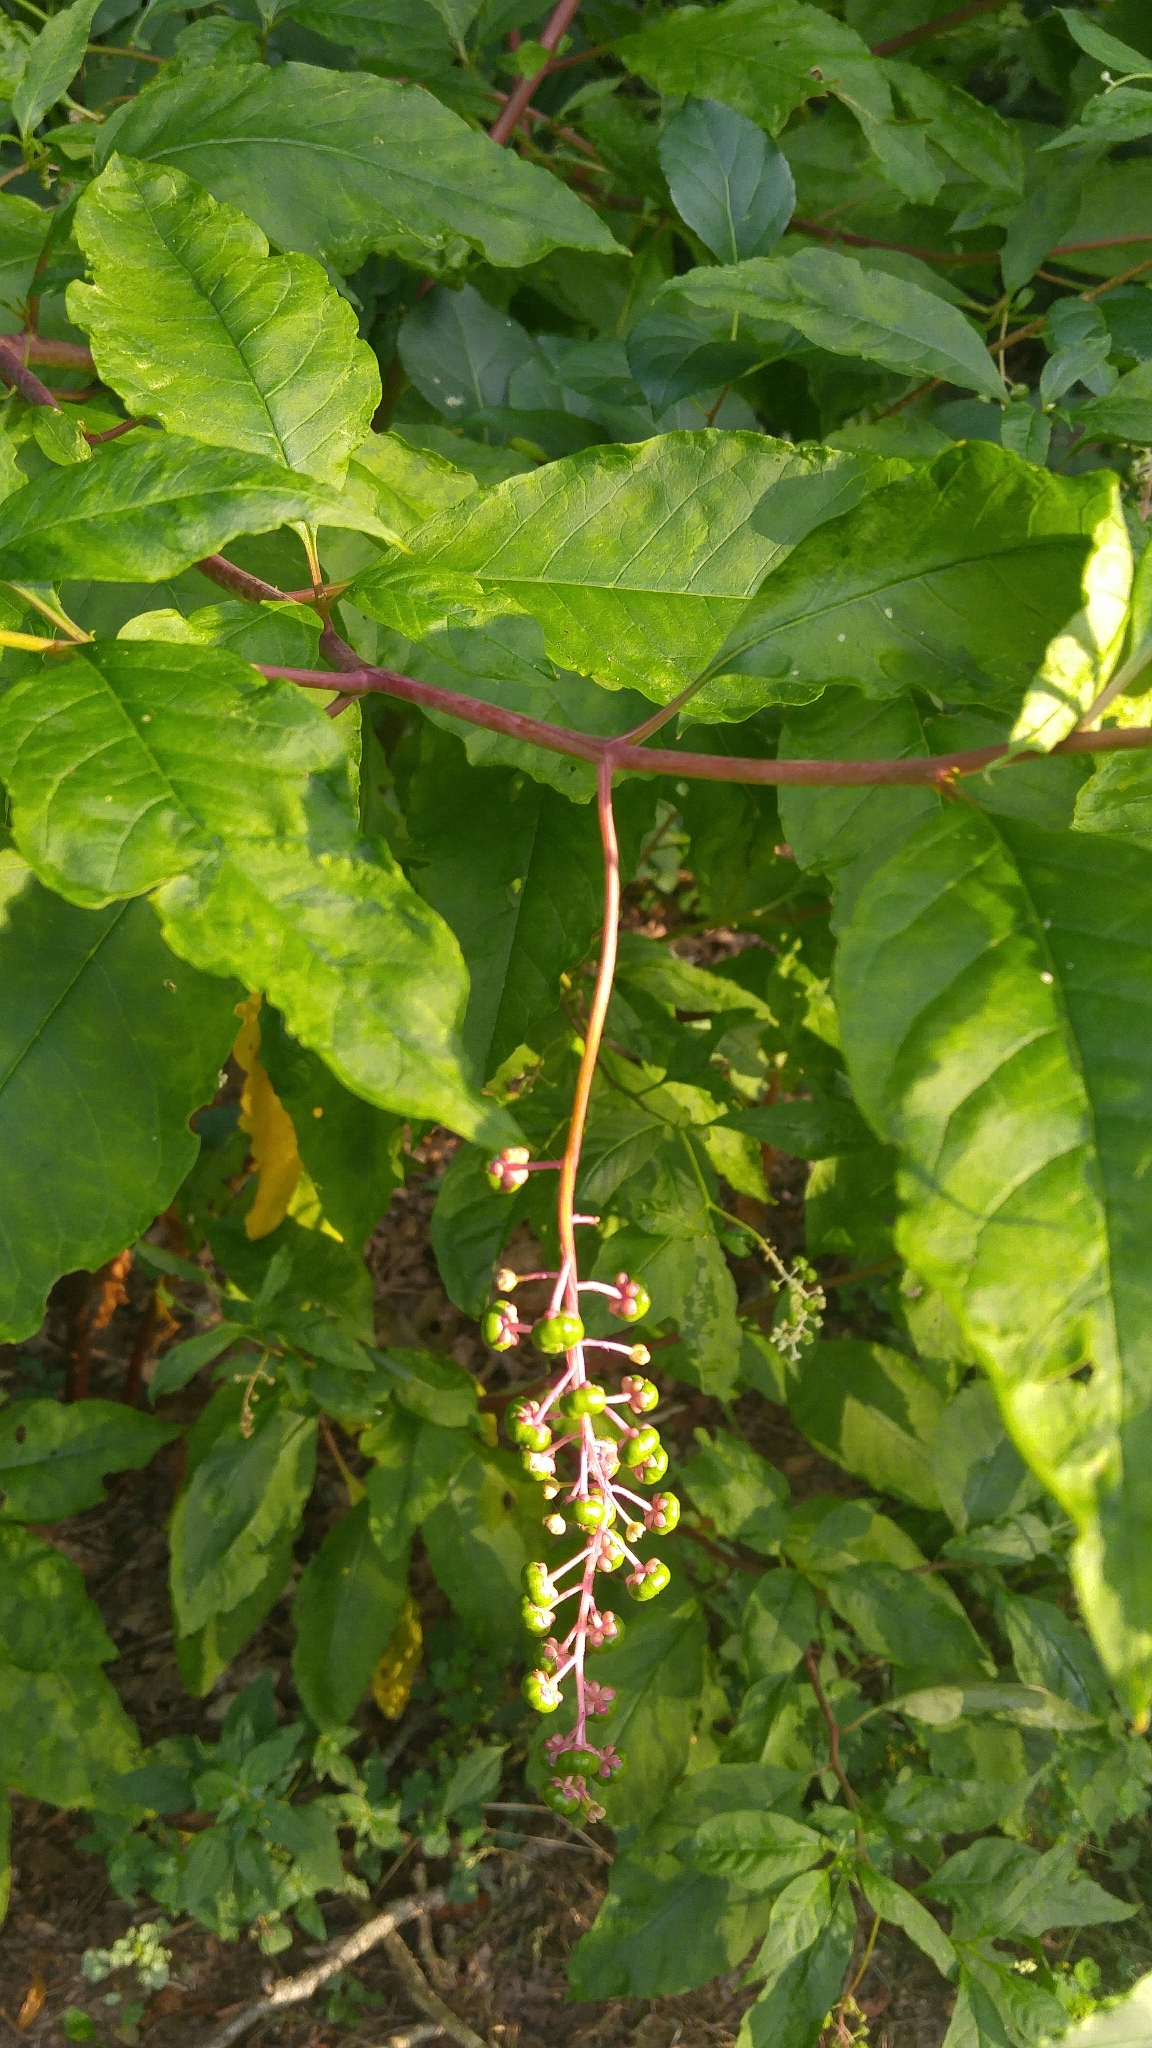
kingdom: Plantae
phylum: Tracheophyta
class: Magnoliopsida
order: Caryophyllales
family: Phytolaccaceae
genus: Phytolacca
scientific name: Phytolacca americana
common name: American pokeweed
